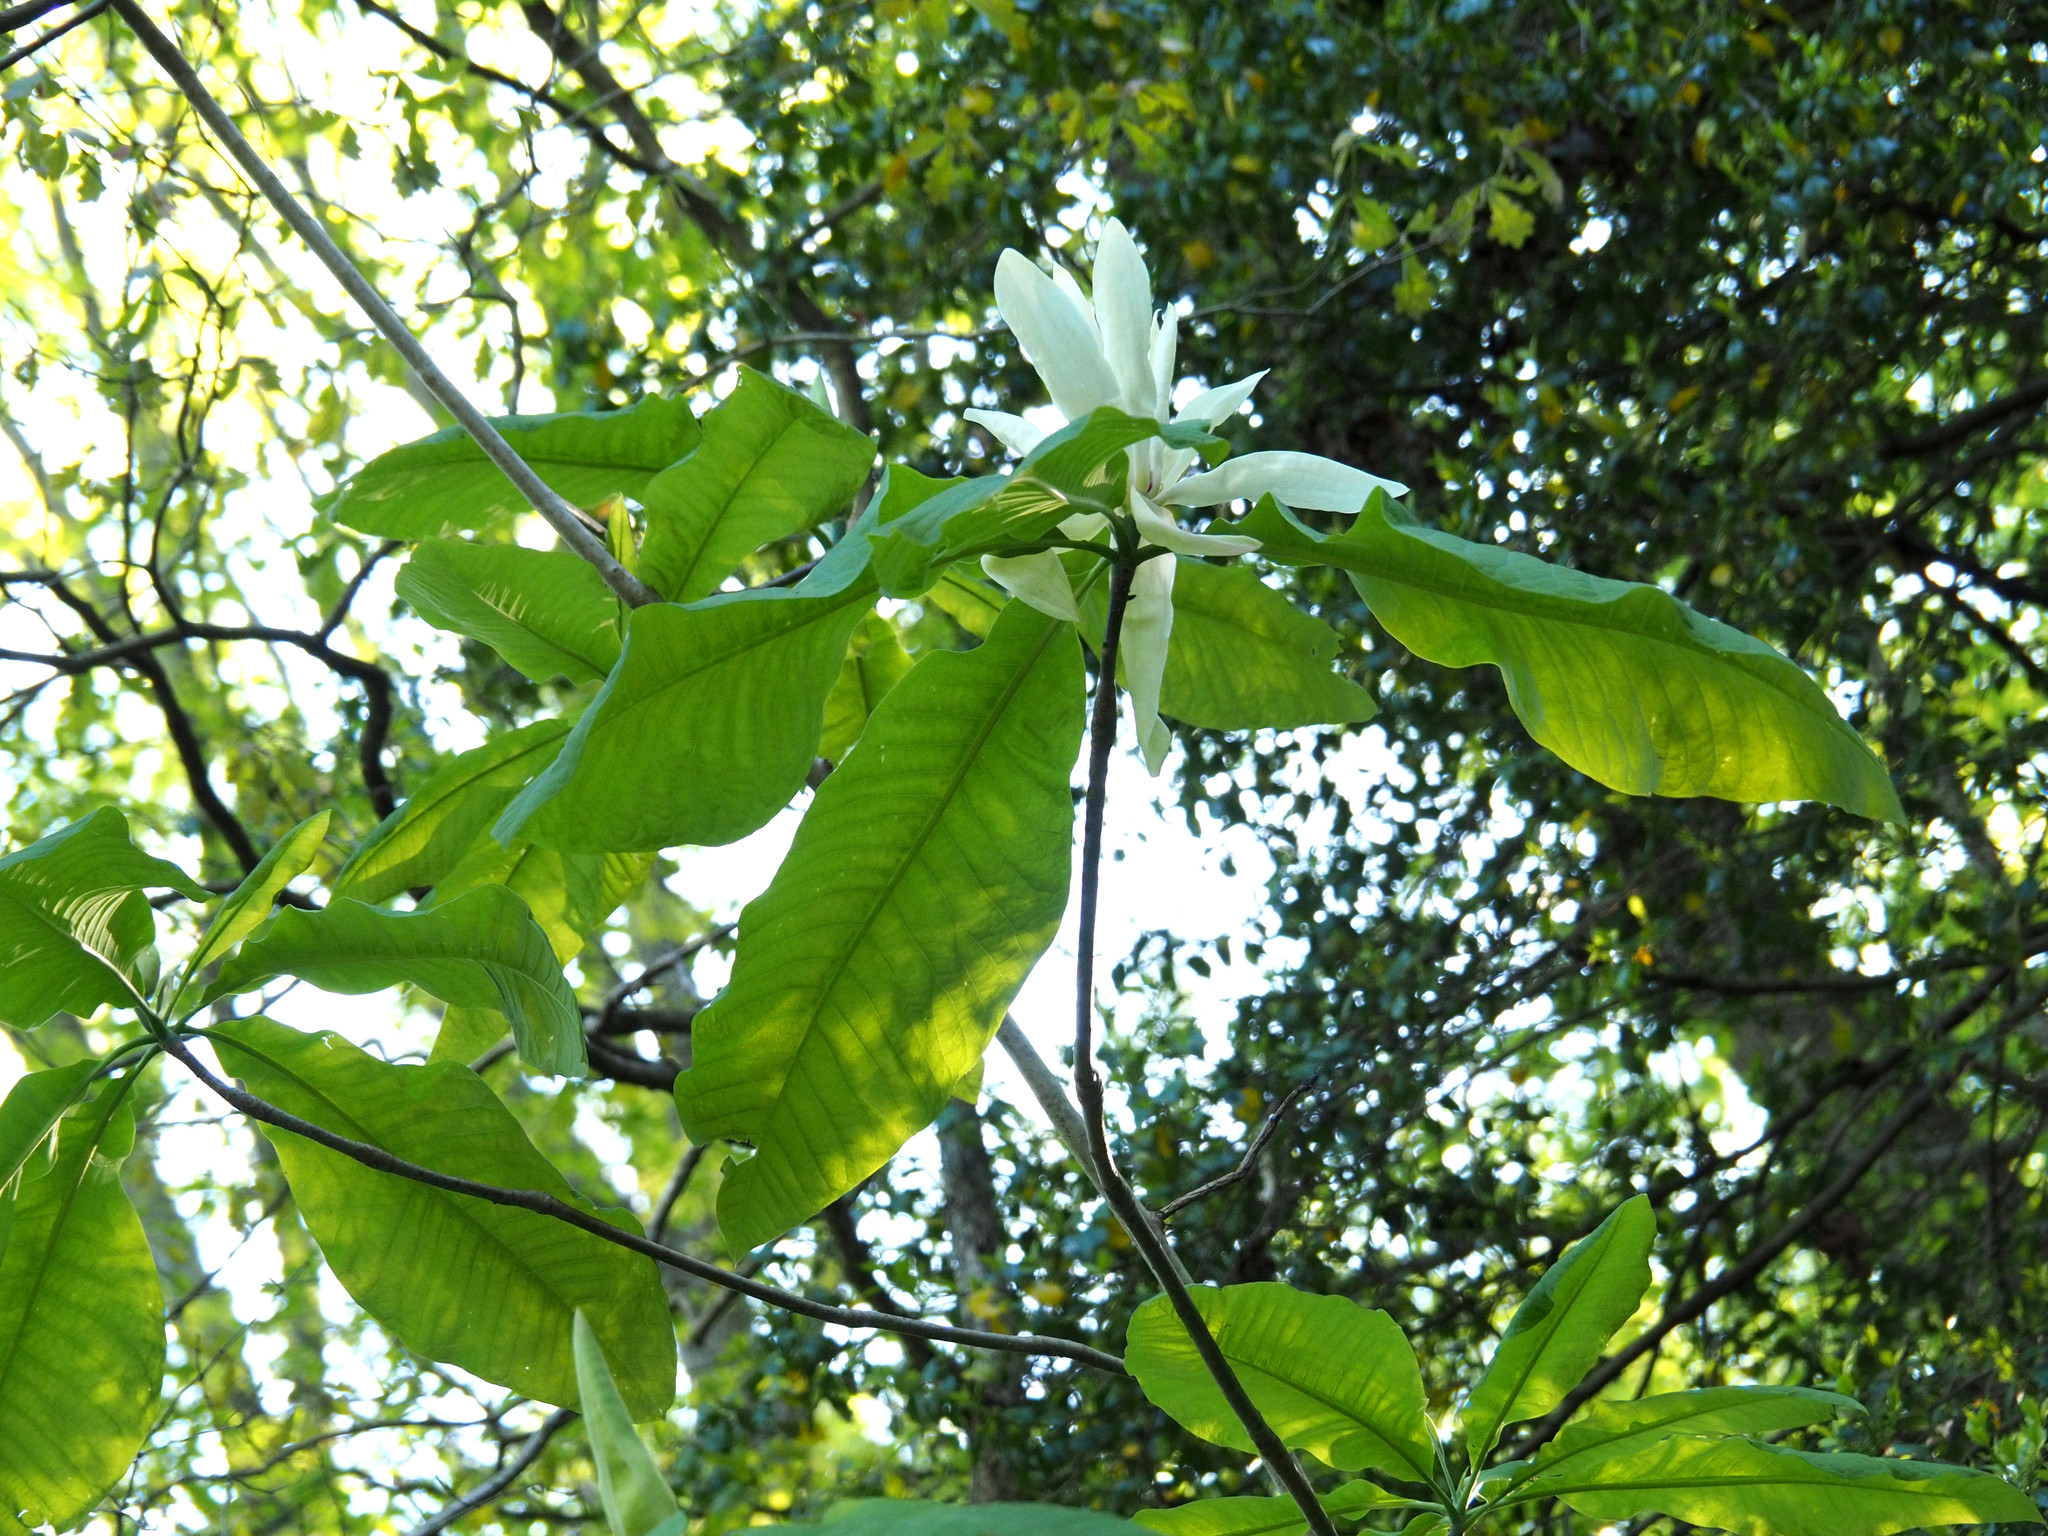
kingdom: Plantae
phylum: Tracheophyta
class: Magnoliopsida
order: Magnoliales
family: Magnoliaceae
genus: Magnolia
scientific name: Magnolia tripetala
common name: Umbrella magnolia
